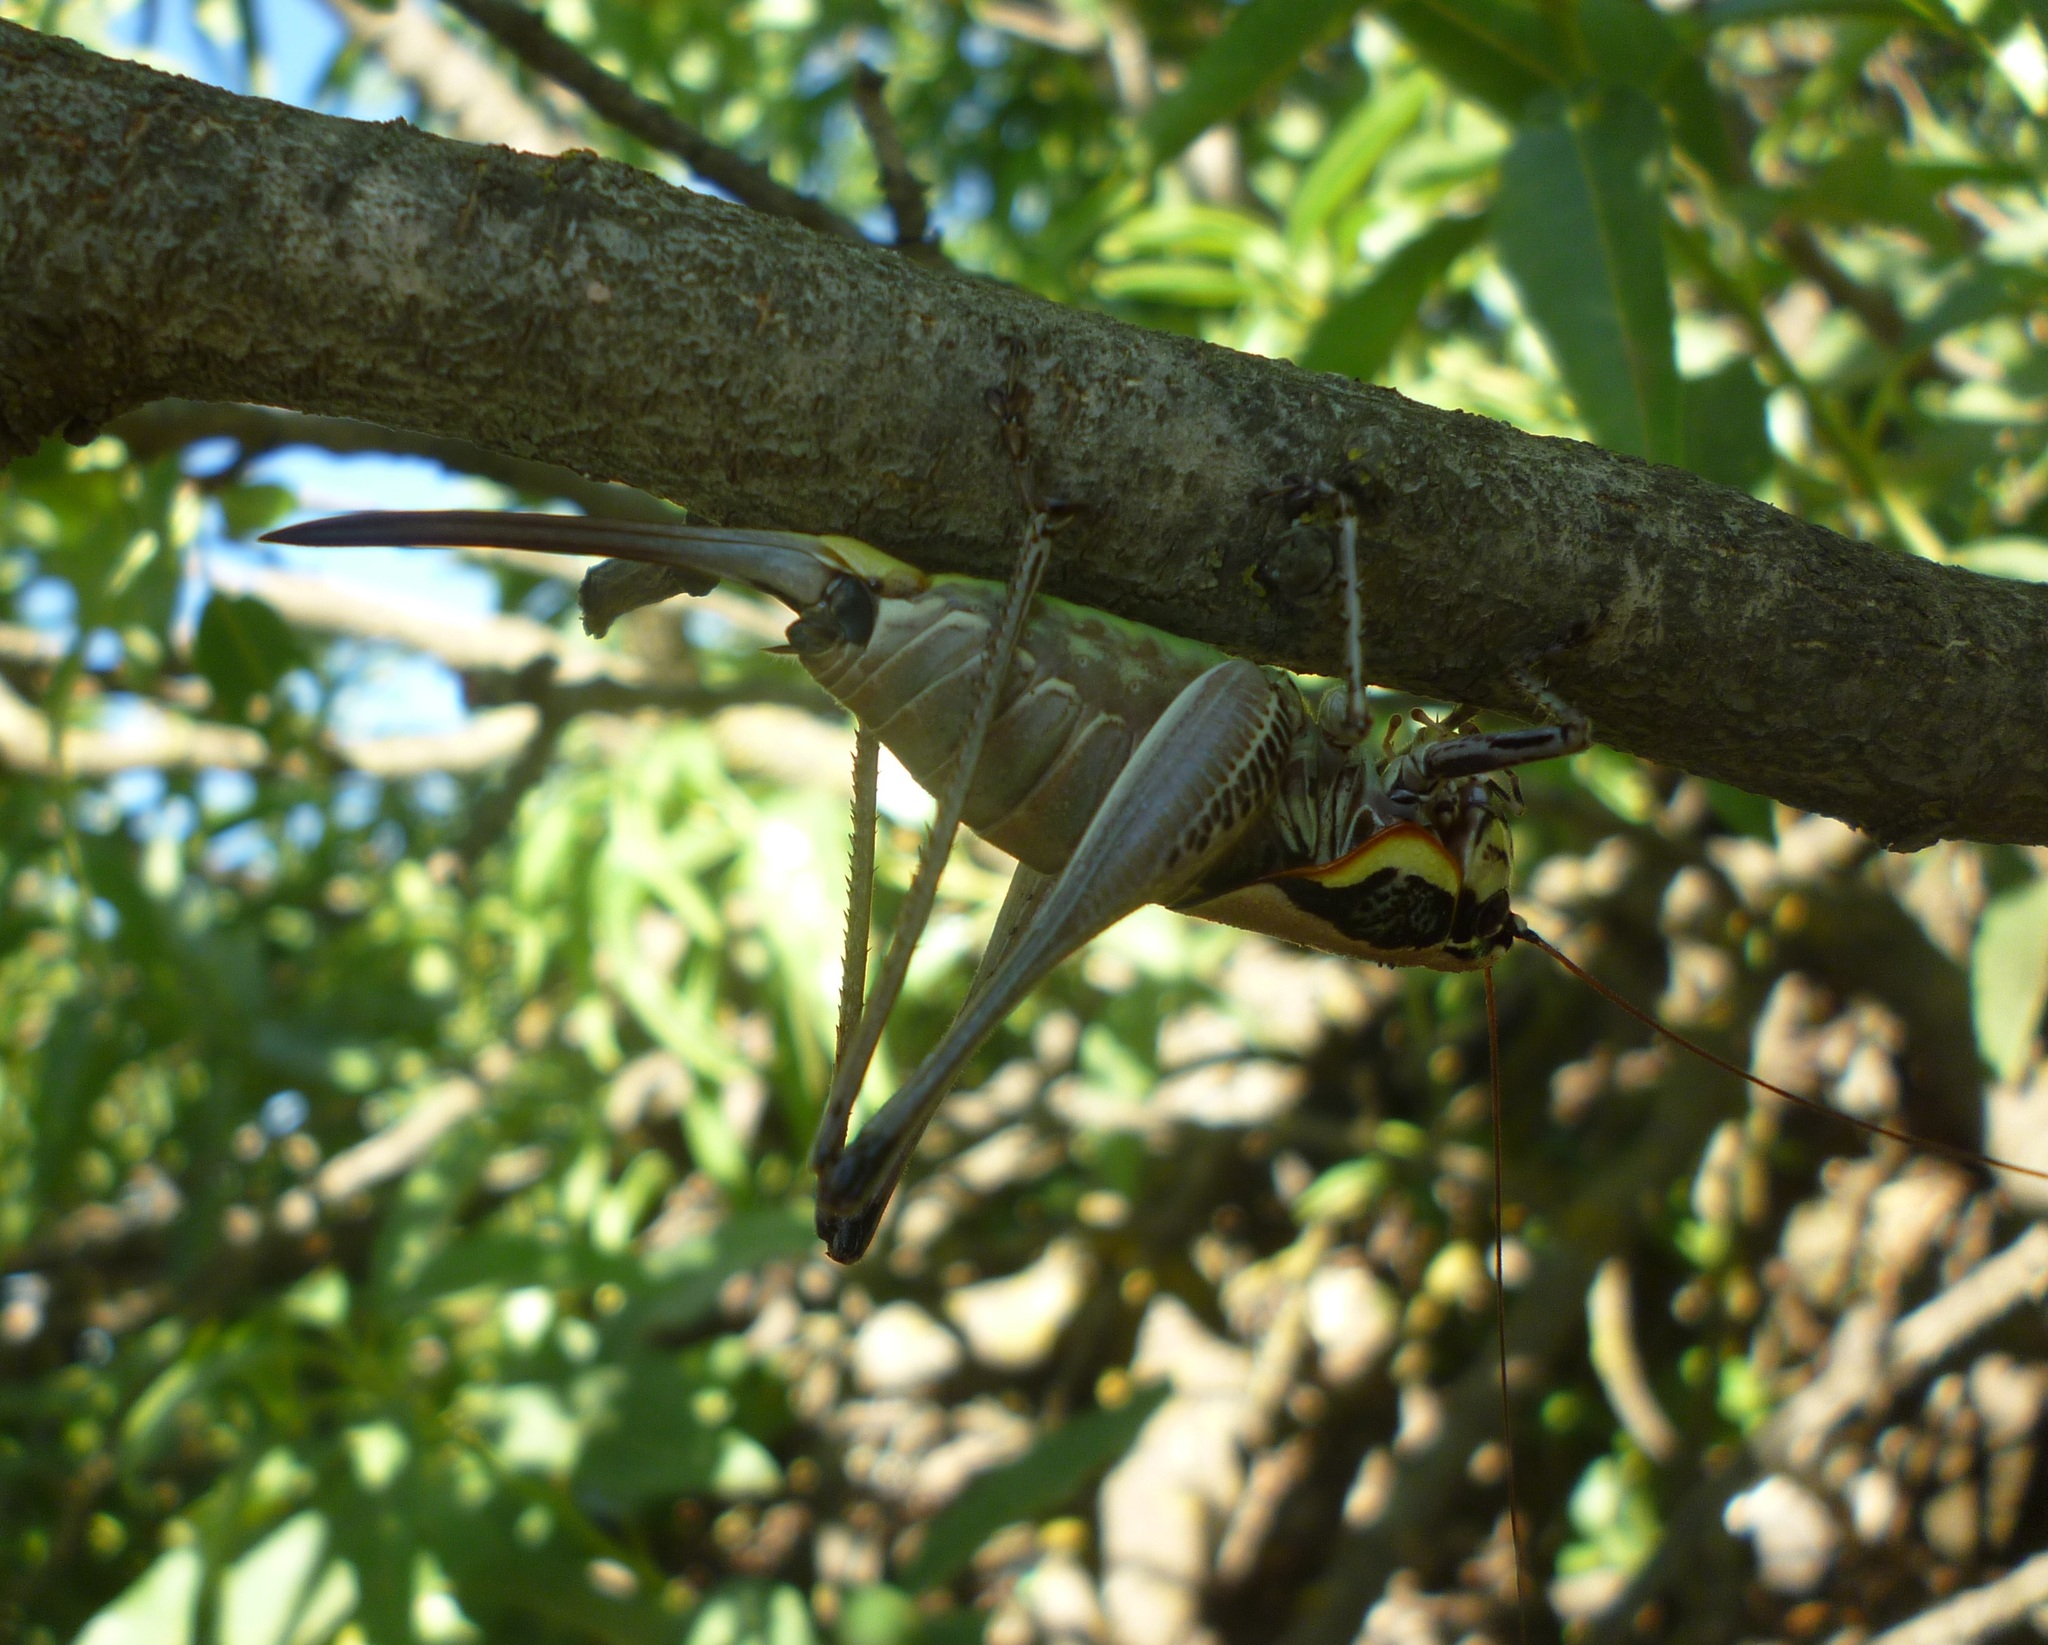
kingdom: Animalia
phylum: Arthropoda
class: Insecta
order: Orthoptera
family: Tettigoniidae
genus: Eupholidoptera
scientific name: Eupholidoptera lyra
